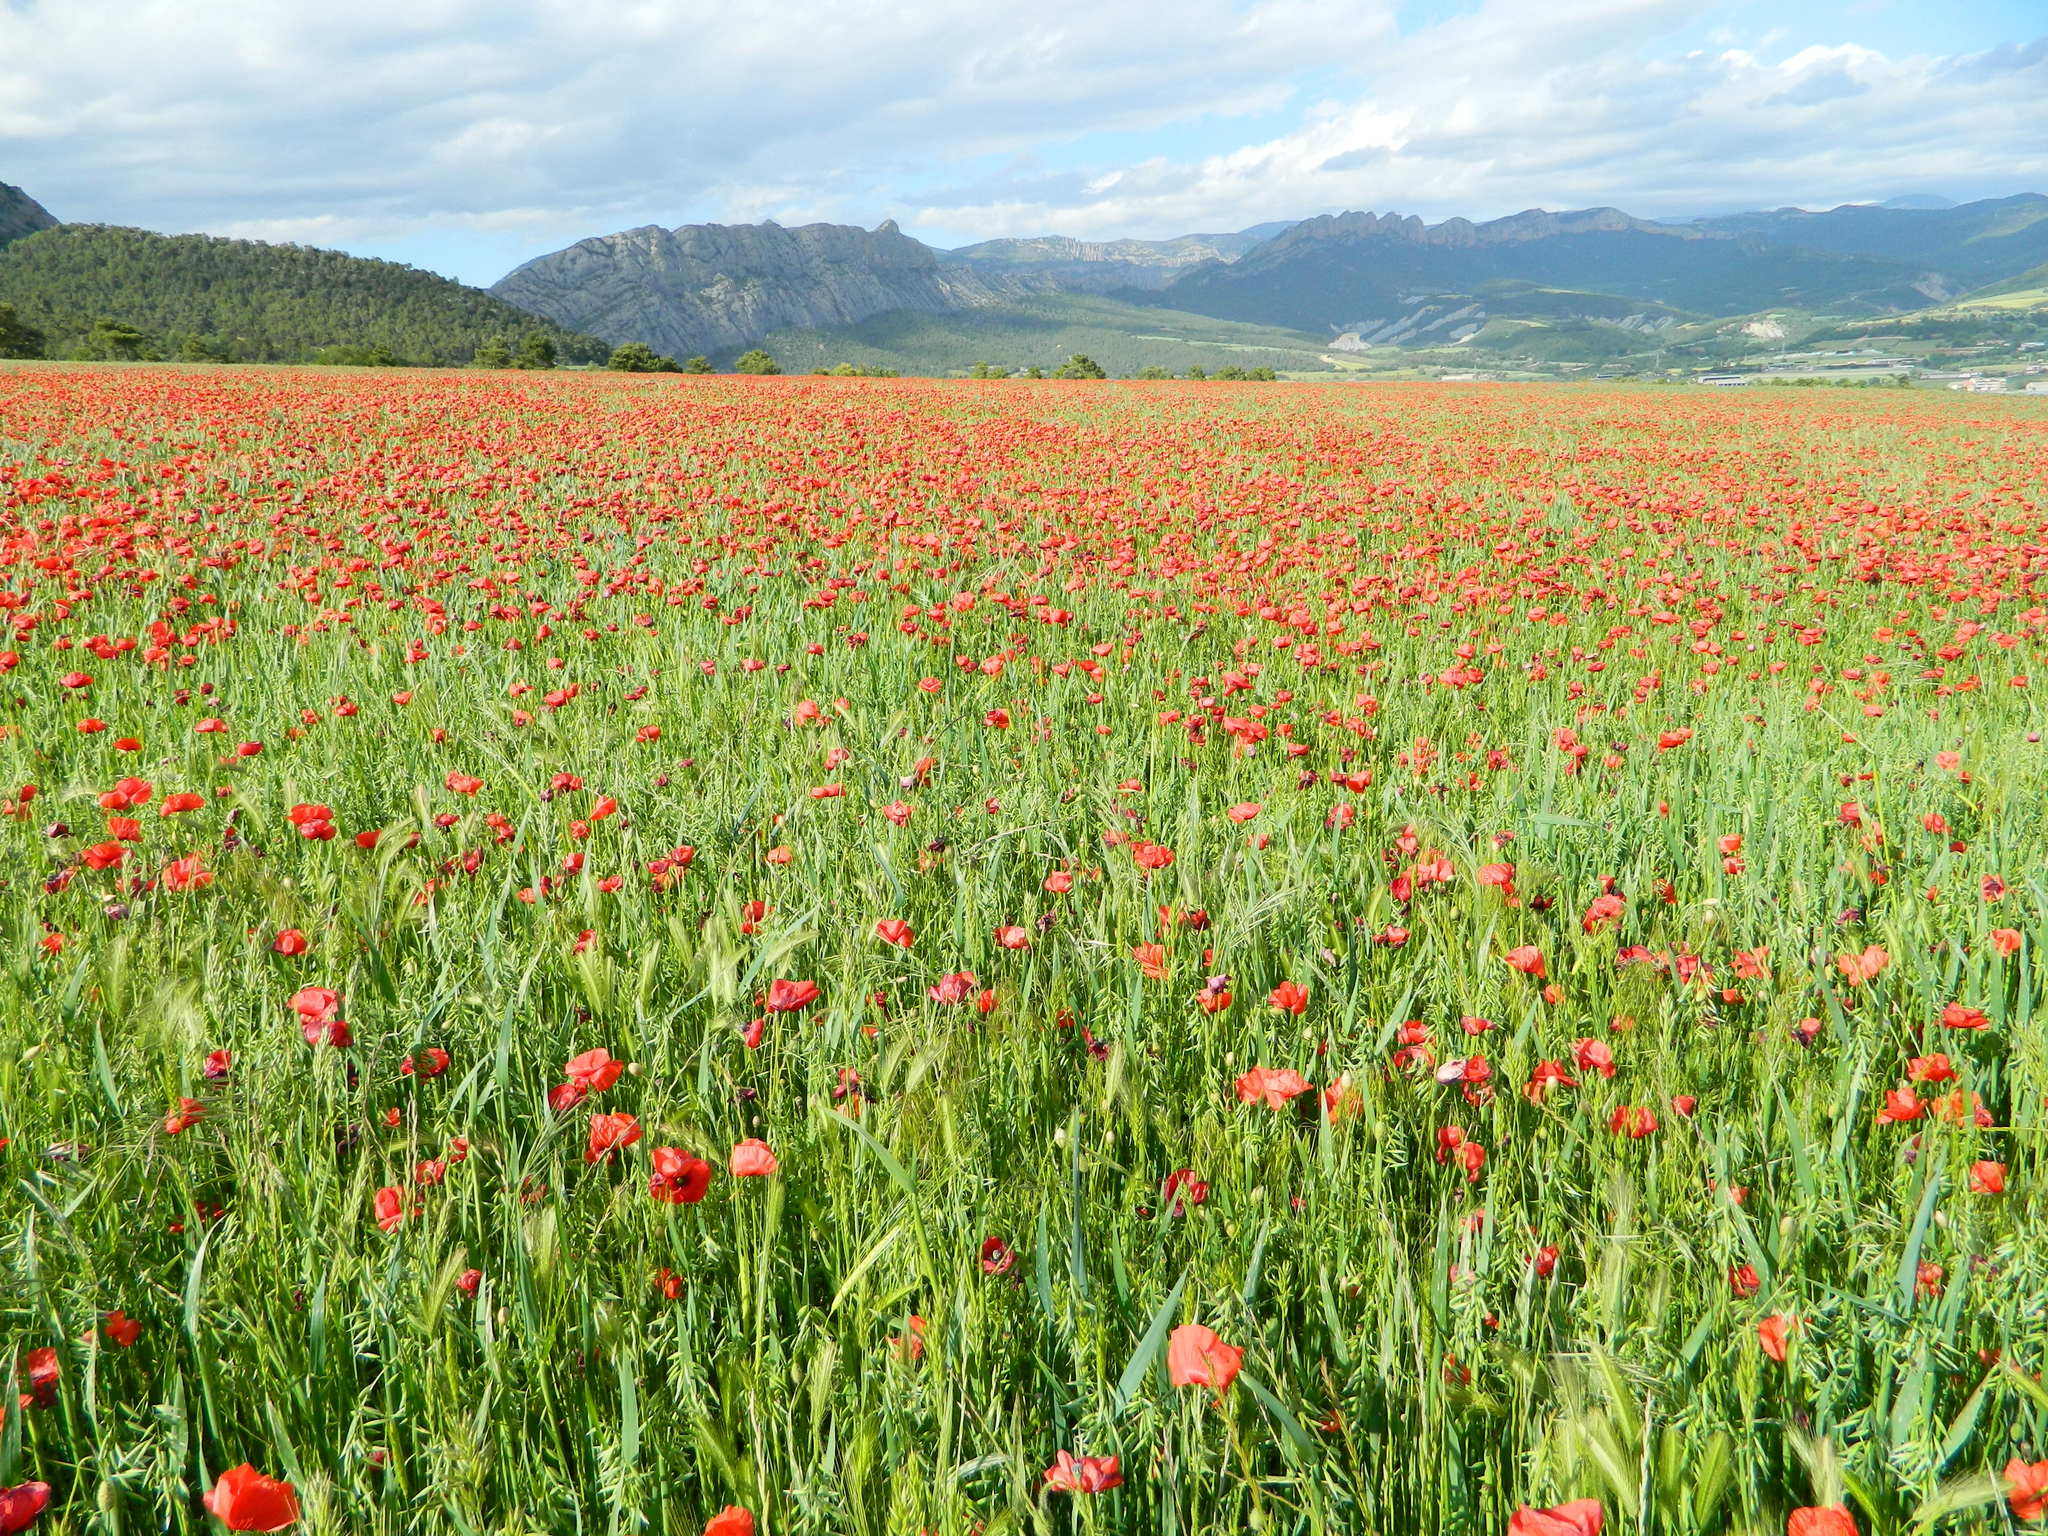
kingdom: Plantae
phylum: Tracheophyta
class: Magnoliopsida
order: Ranunculales
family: Papaveraceae
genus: Papaver
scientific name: Papaver rhoeas
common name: Corn poppy
